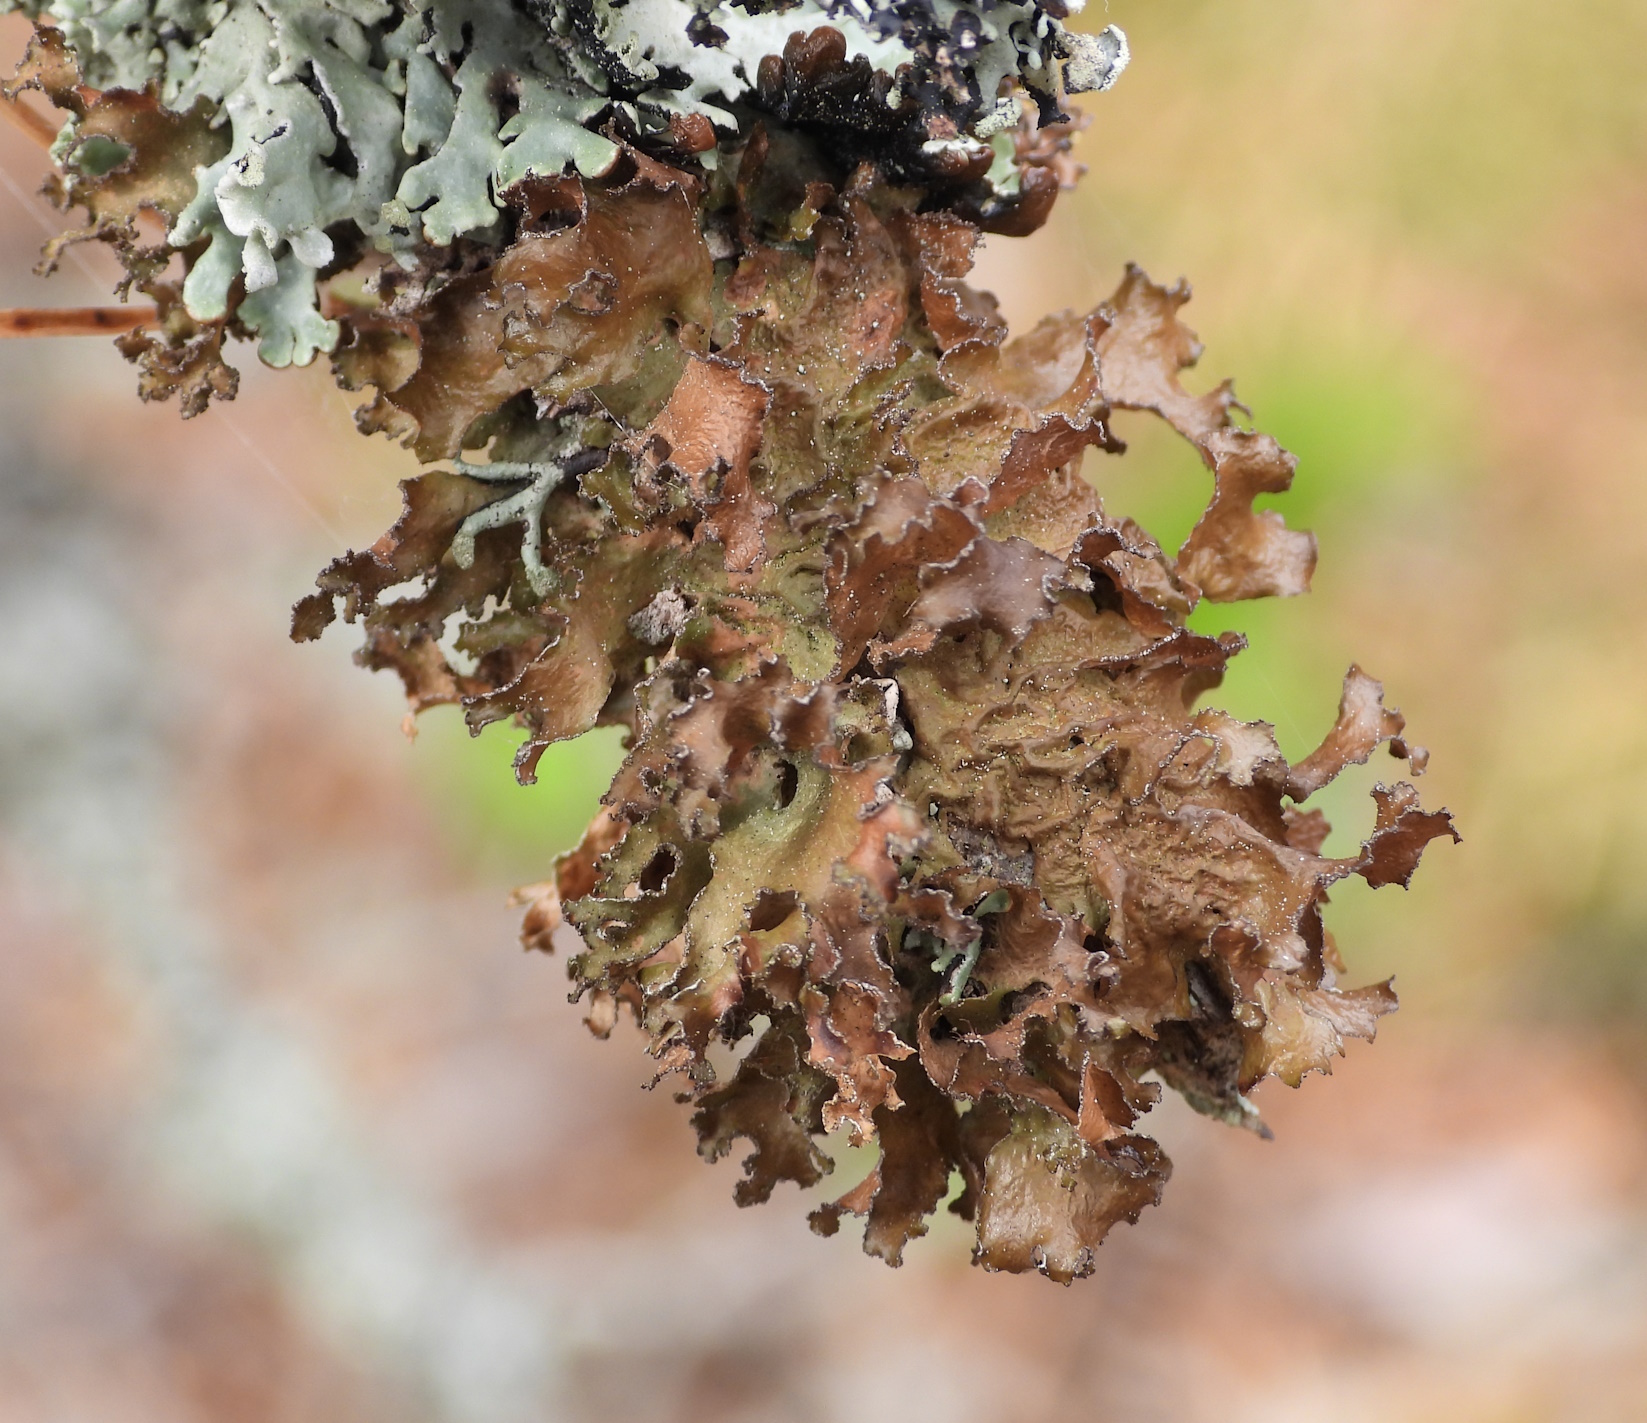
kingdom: Fungi
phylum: Ascomycota
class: Lecanoromycetes
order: Lecanorales
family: Parmeliaceae
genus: Nephromopsis
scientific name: Nephromopsis chlorophylla
